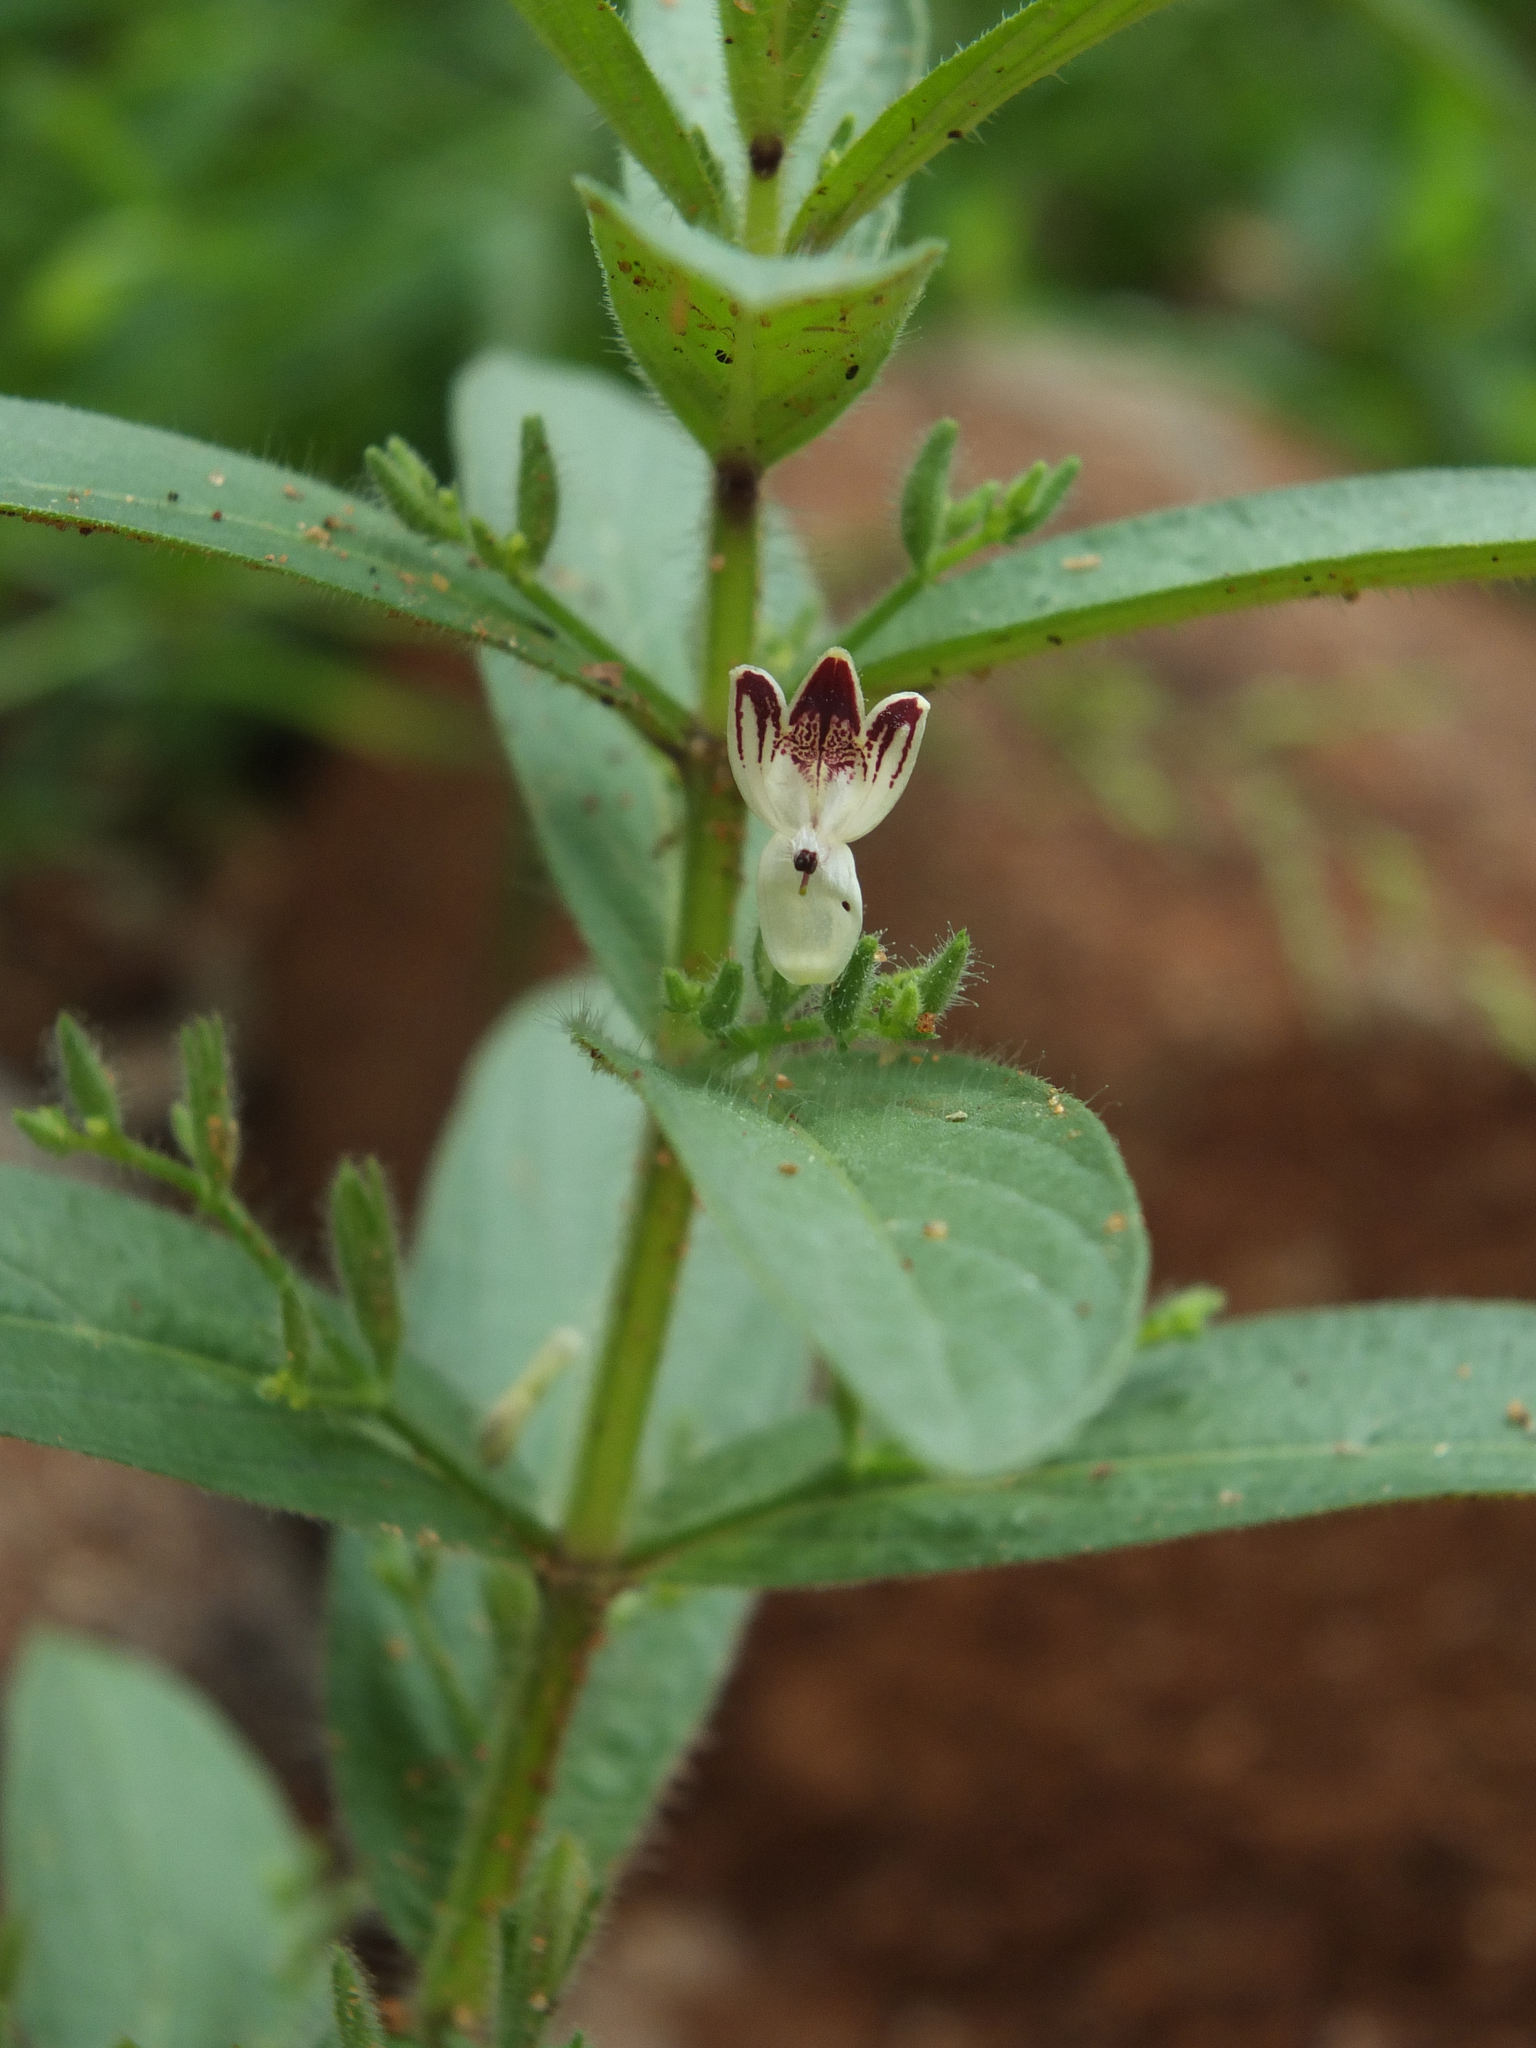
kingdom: Plantae
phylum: Tracheophyta
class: Magnoliopsida
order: Lamiales
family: Acanthaceae
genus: Andrographis
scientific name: Andrographis echioides
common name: False waterwillow
